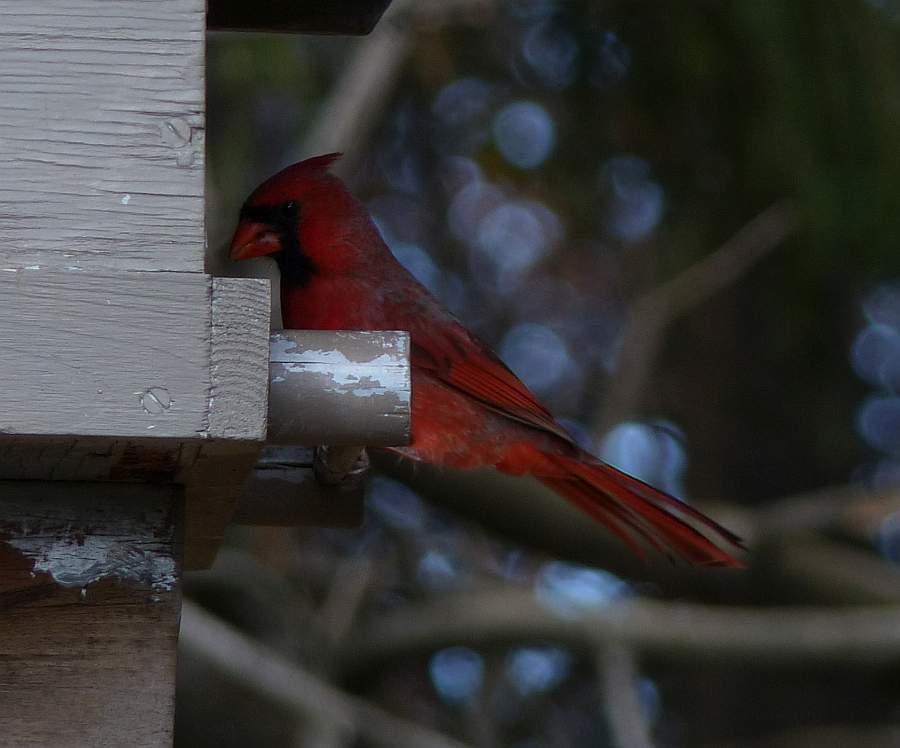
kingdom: Animalia
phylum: Chordata
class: Aves
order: Passeriformes
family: Cardinalidae
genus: Cardinalis
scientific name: Cardinalis cardinalis
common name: Northern cardinal
